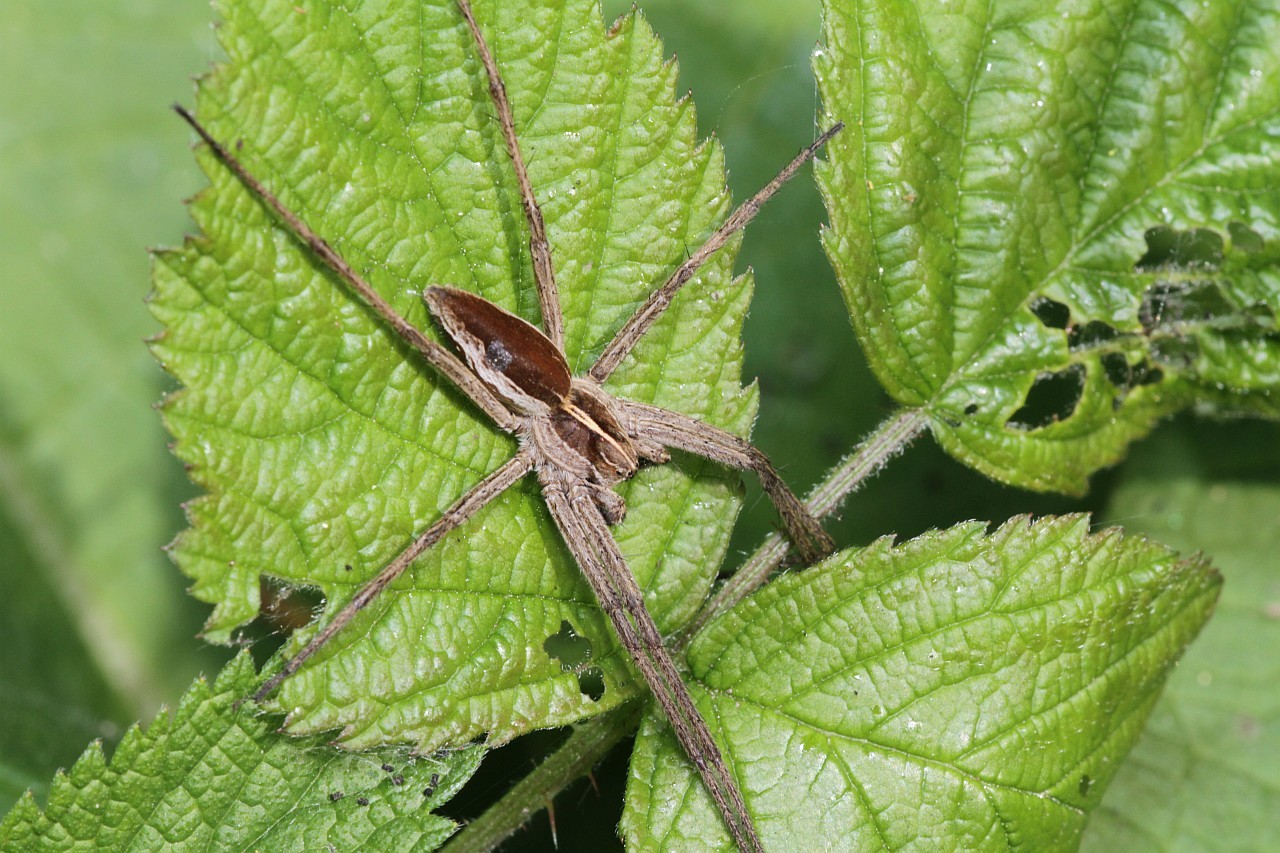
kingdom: Animalia
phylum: Arthropoda
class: Arachnida
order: Araneae
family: Pisauridae
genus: Pisaura
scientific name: Pisaura mirabilis
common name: Tent spider
